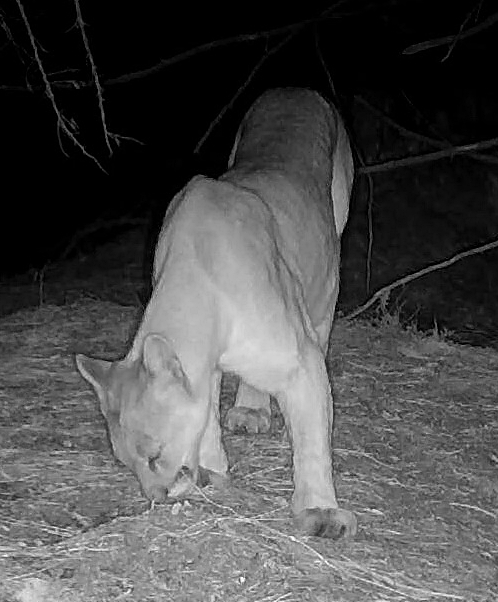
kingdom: Animalia
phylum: Chordata
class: Mammalia
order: Carnivora
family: Felidae
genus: Puma
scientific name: Puma concolor
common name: Puma
